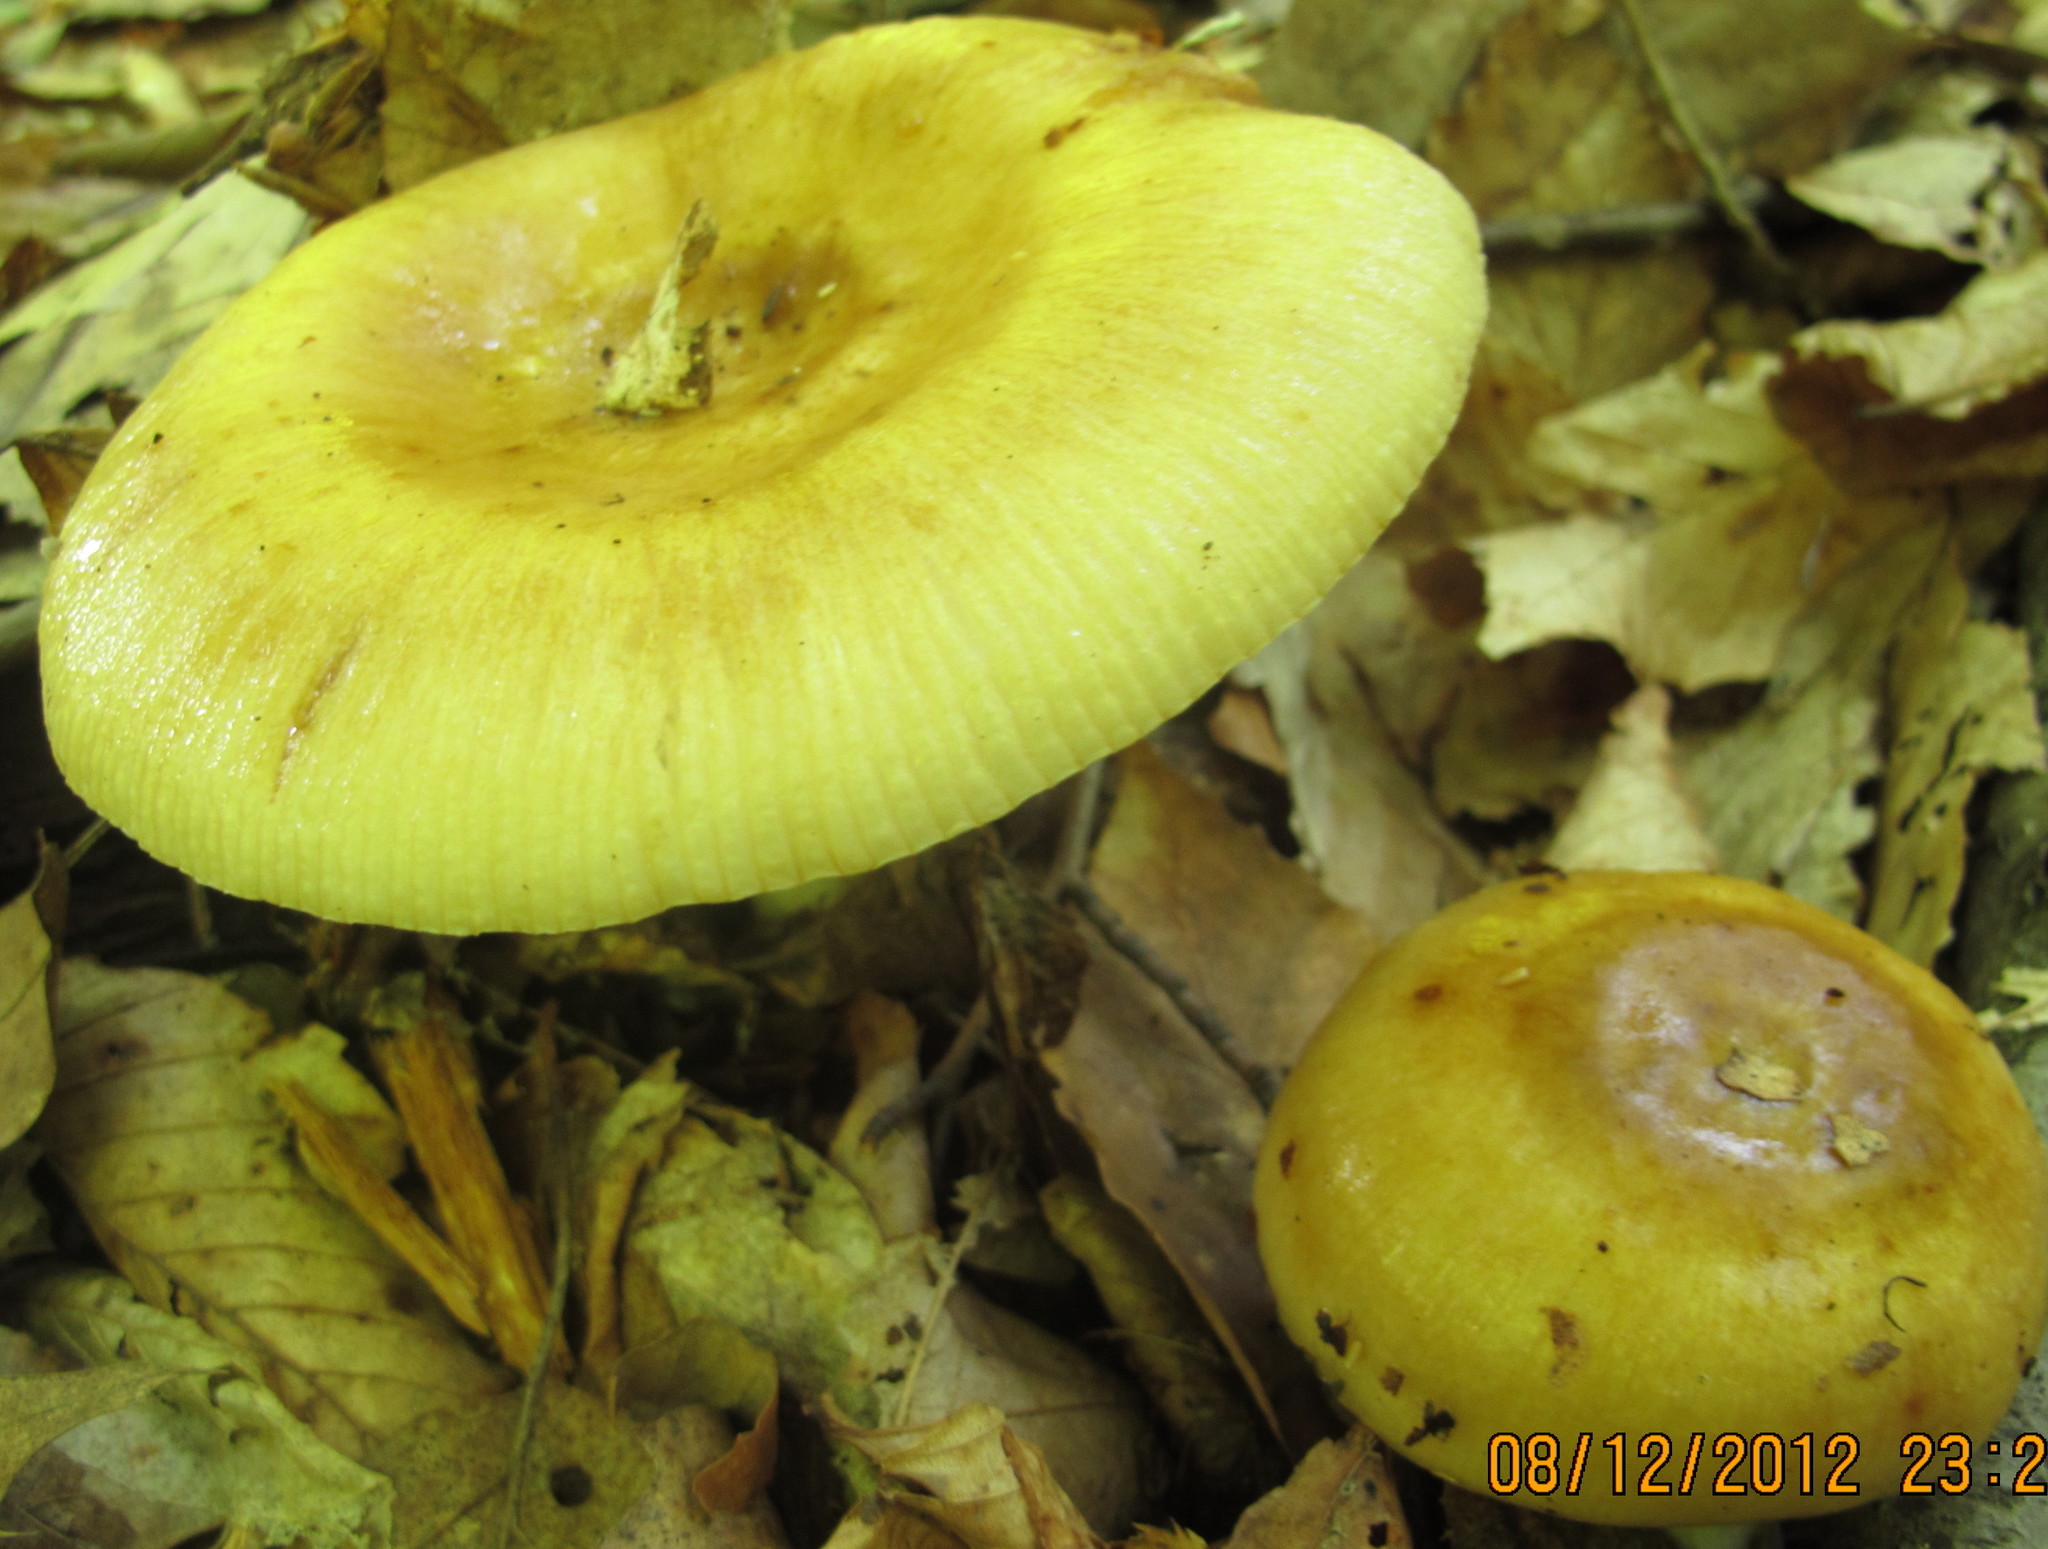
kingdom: Fungi
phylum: Basidiomycota
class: Agaricomycetes
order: Russulales
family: Russulaceae
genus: Russula
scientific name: Russula grata
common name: Bitter almond brittlegill
